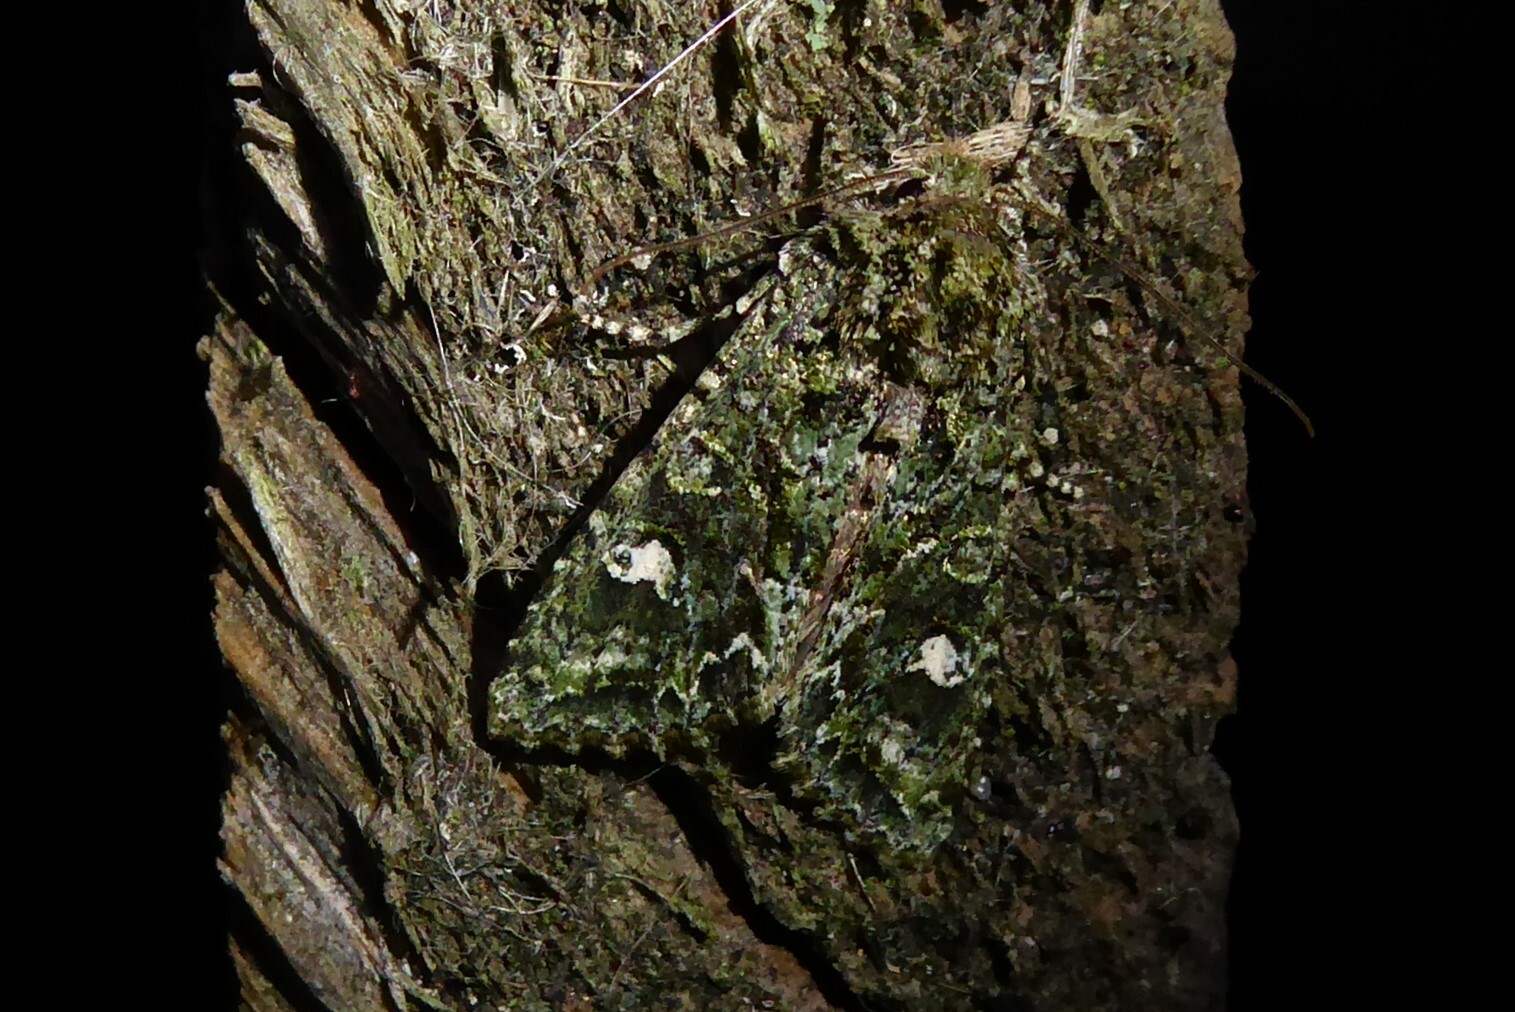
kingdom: Animalia
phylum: Arthropoda
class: Insecta
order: Lepidoptera
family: Noctuidae
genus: Ichneutica
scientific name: Ichneutica
